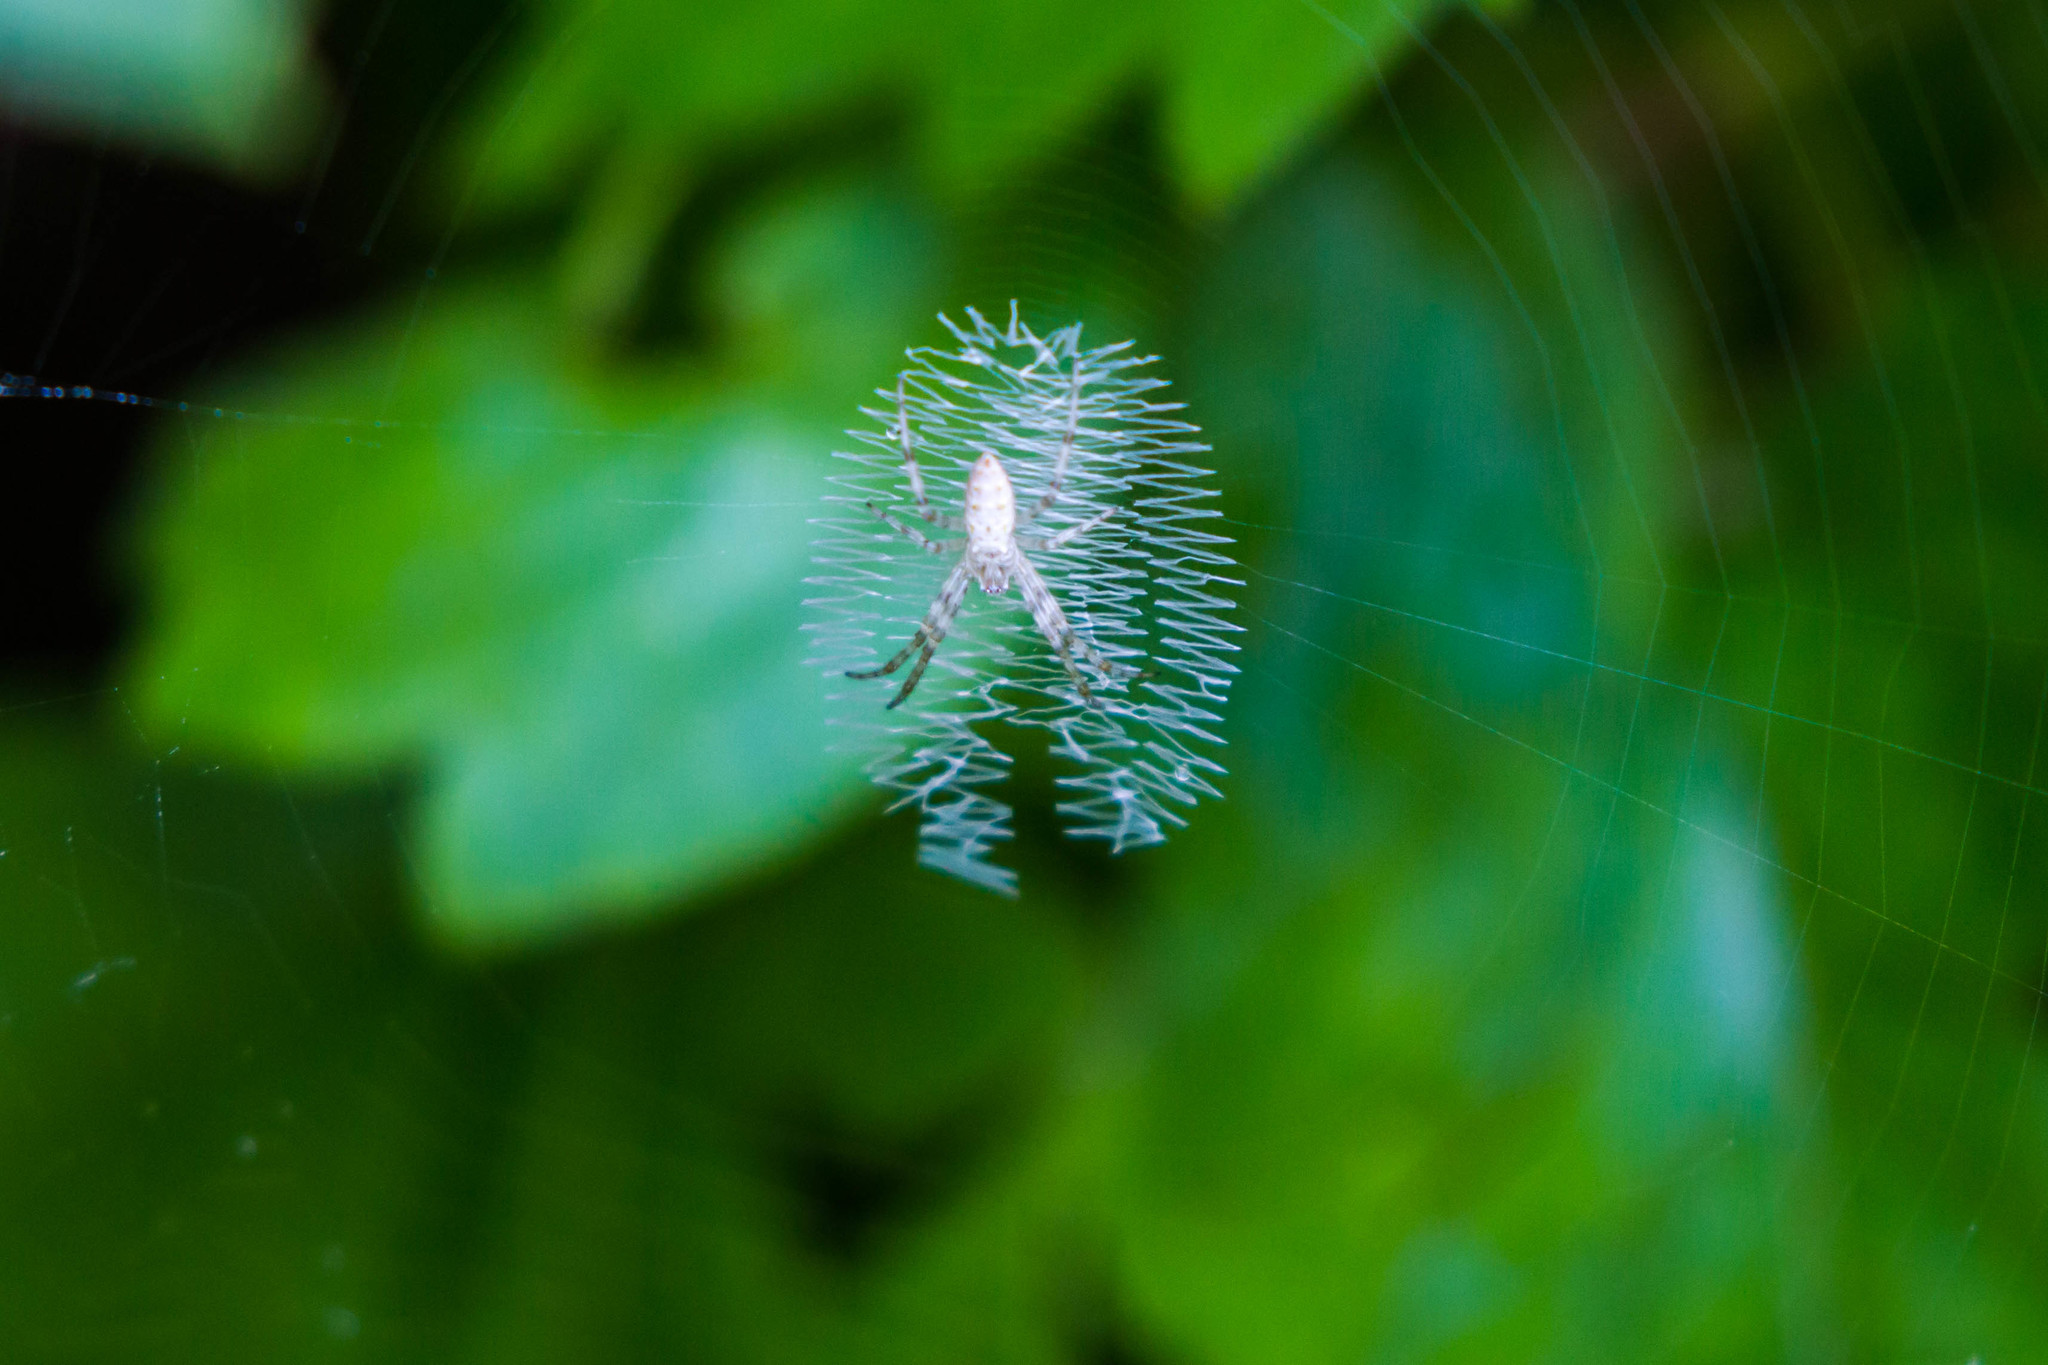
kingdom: Animalia
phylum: Arthropoda
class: Arachnida
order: Araneae
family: Araneidae
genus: Argiope
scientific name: Argiope aurantia
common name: Orb weavers
